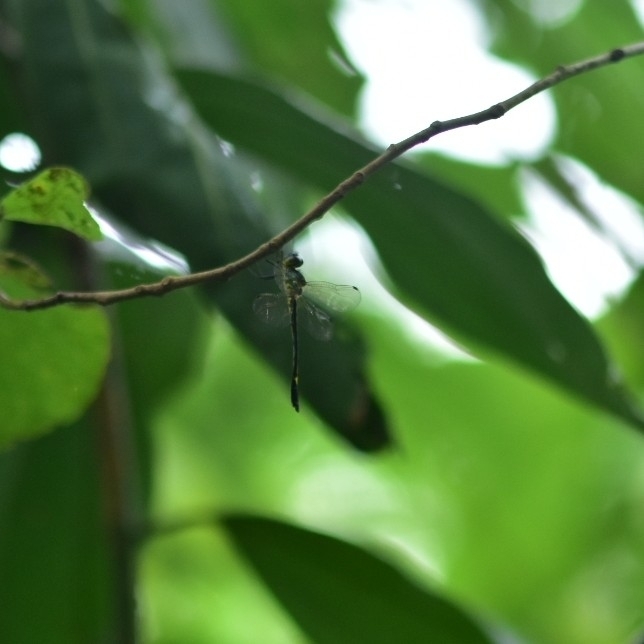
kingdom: Animalia
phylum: Arthropoda
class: Insecta
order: Odonata
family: Corduliidae
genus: Macromidia
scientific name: Macromidia donaldi
